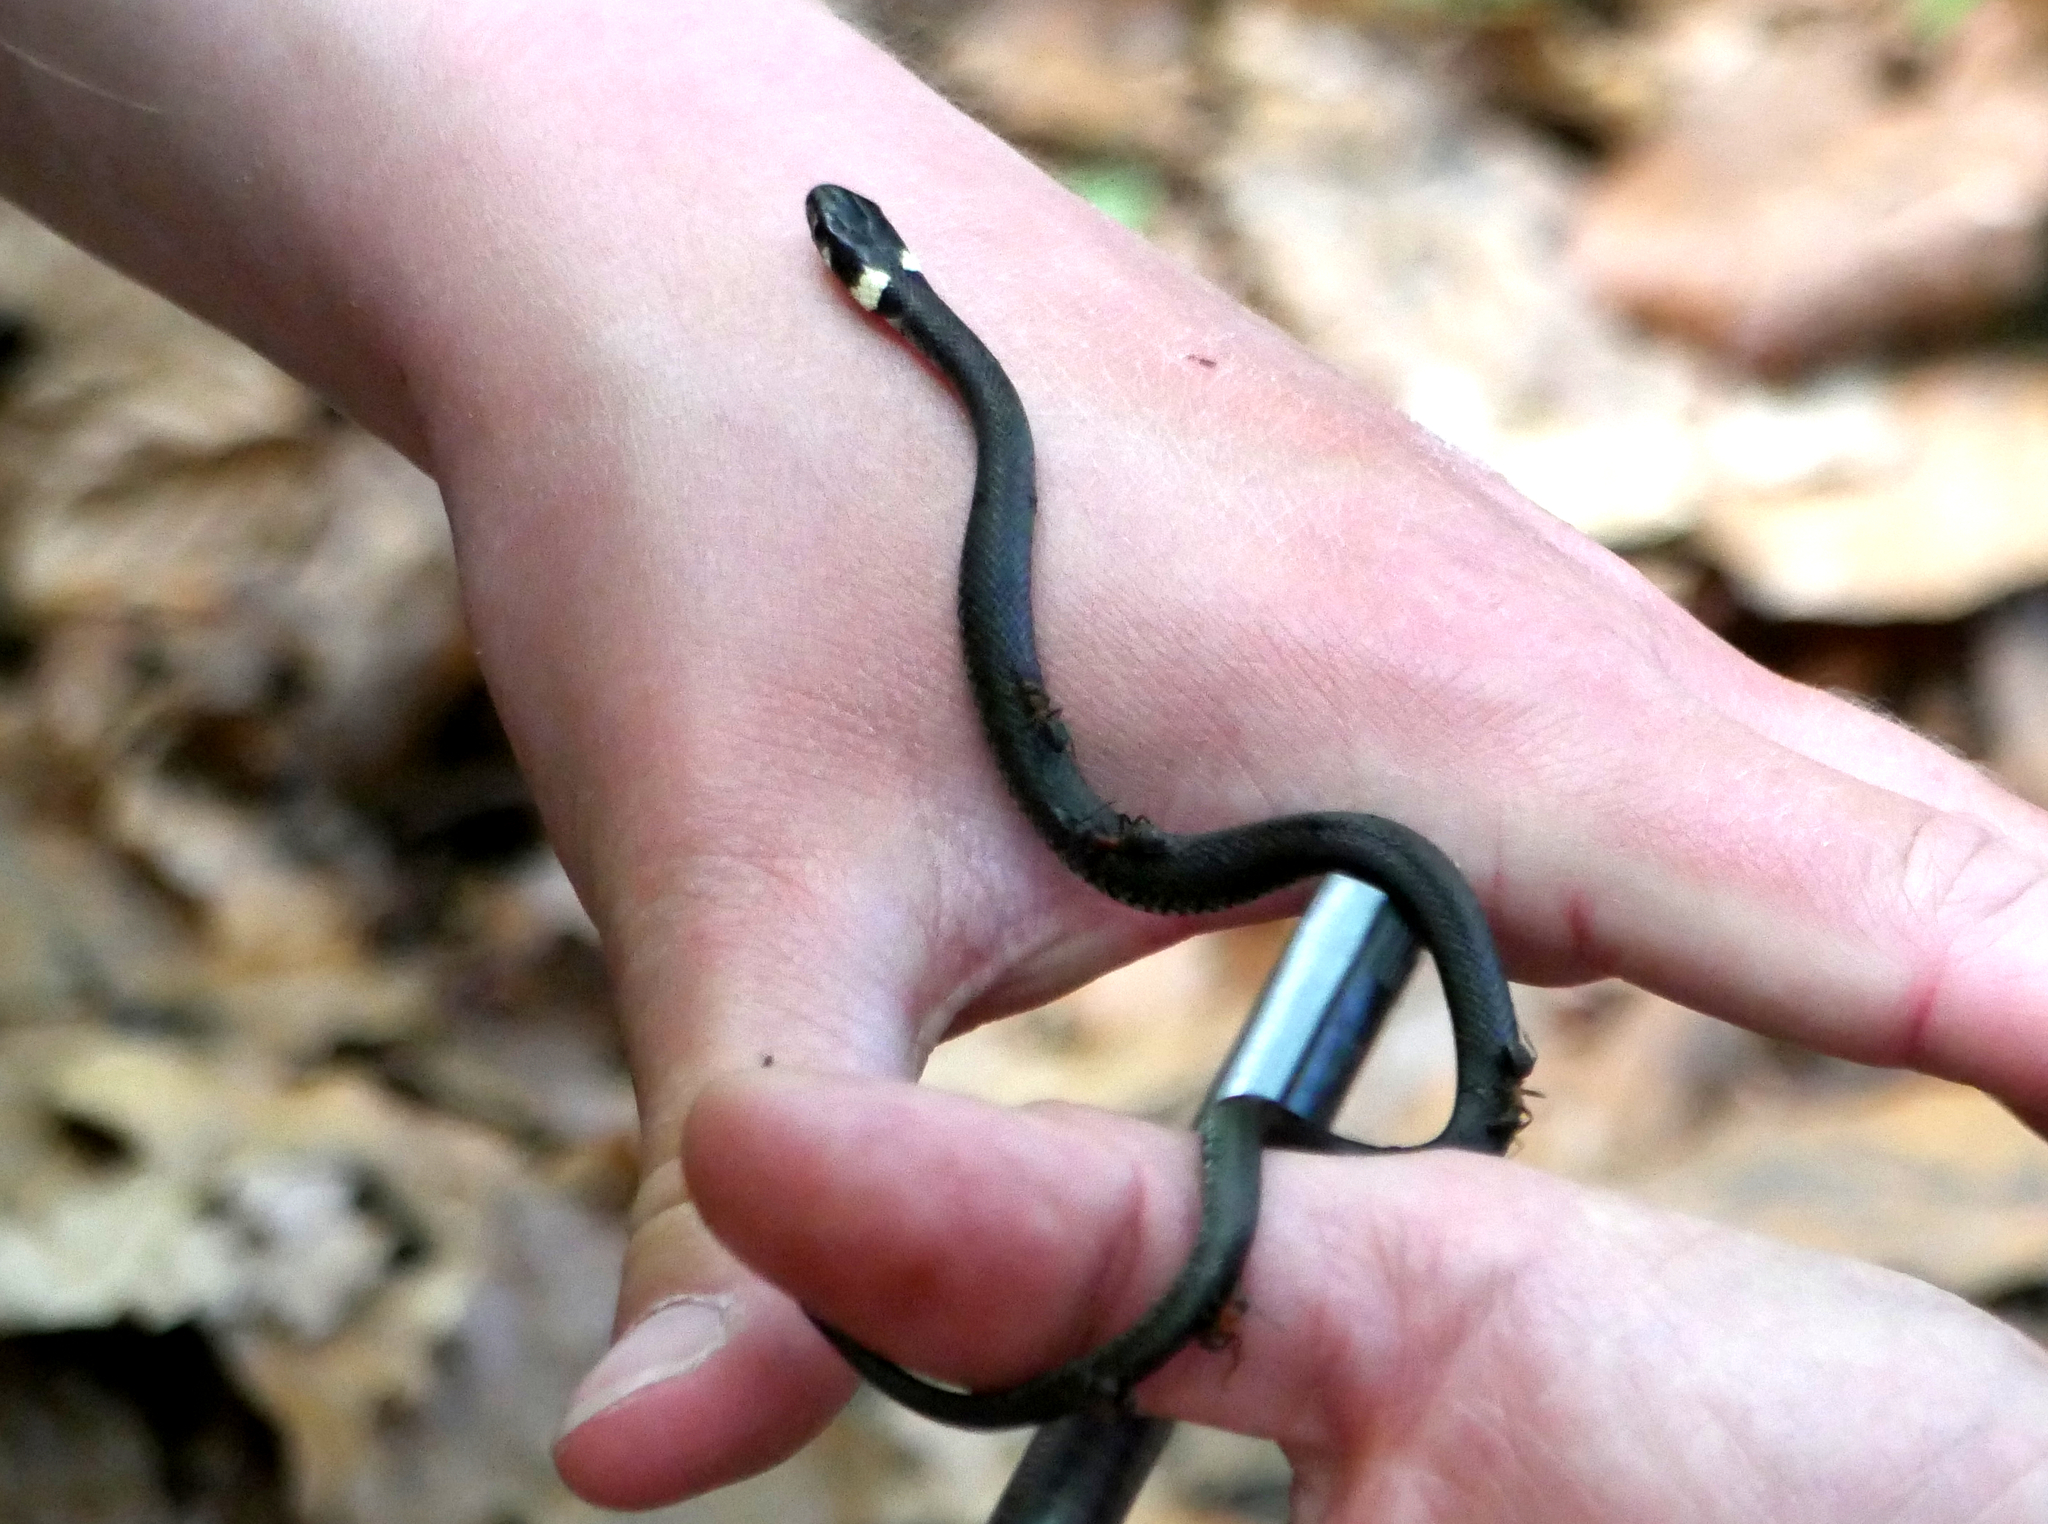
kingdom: Animalia
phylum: Chordata
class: Squamata
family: Colubridae
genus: Natrix
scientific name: Natrix natrix
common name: Grass snake
